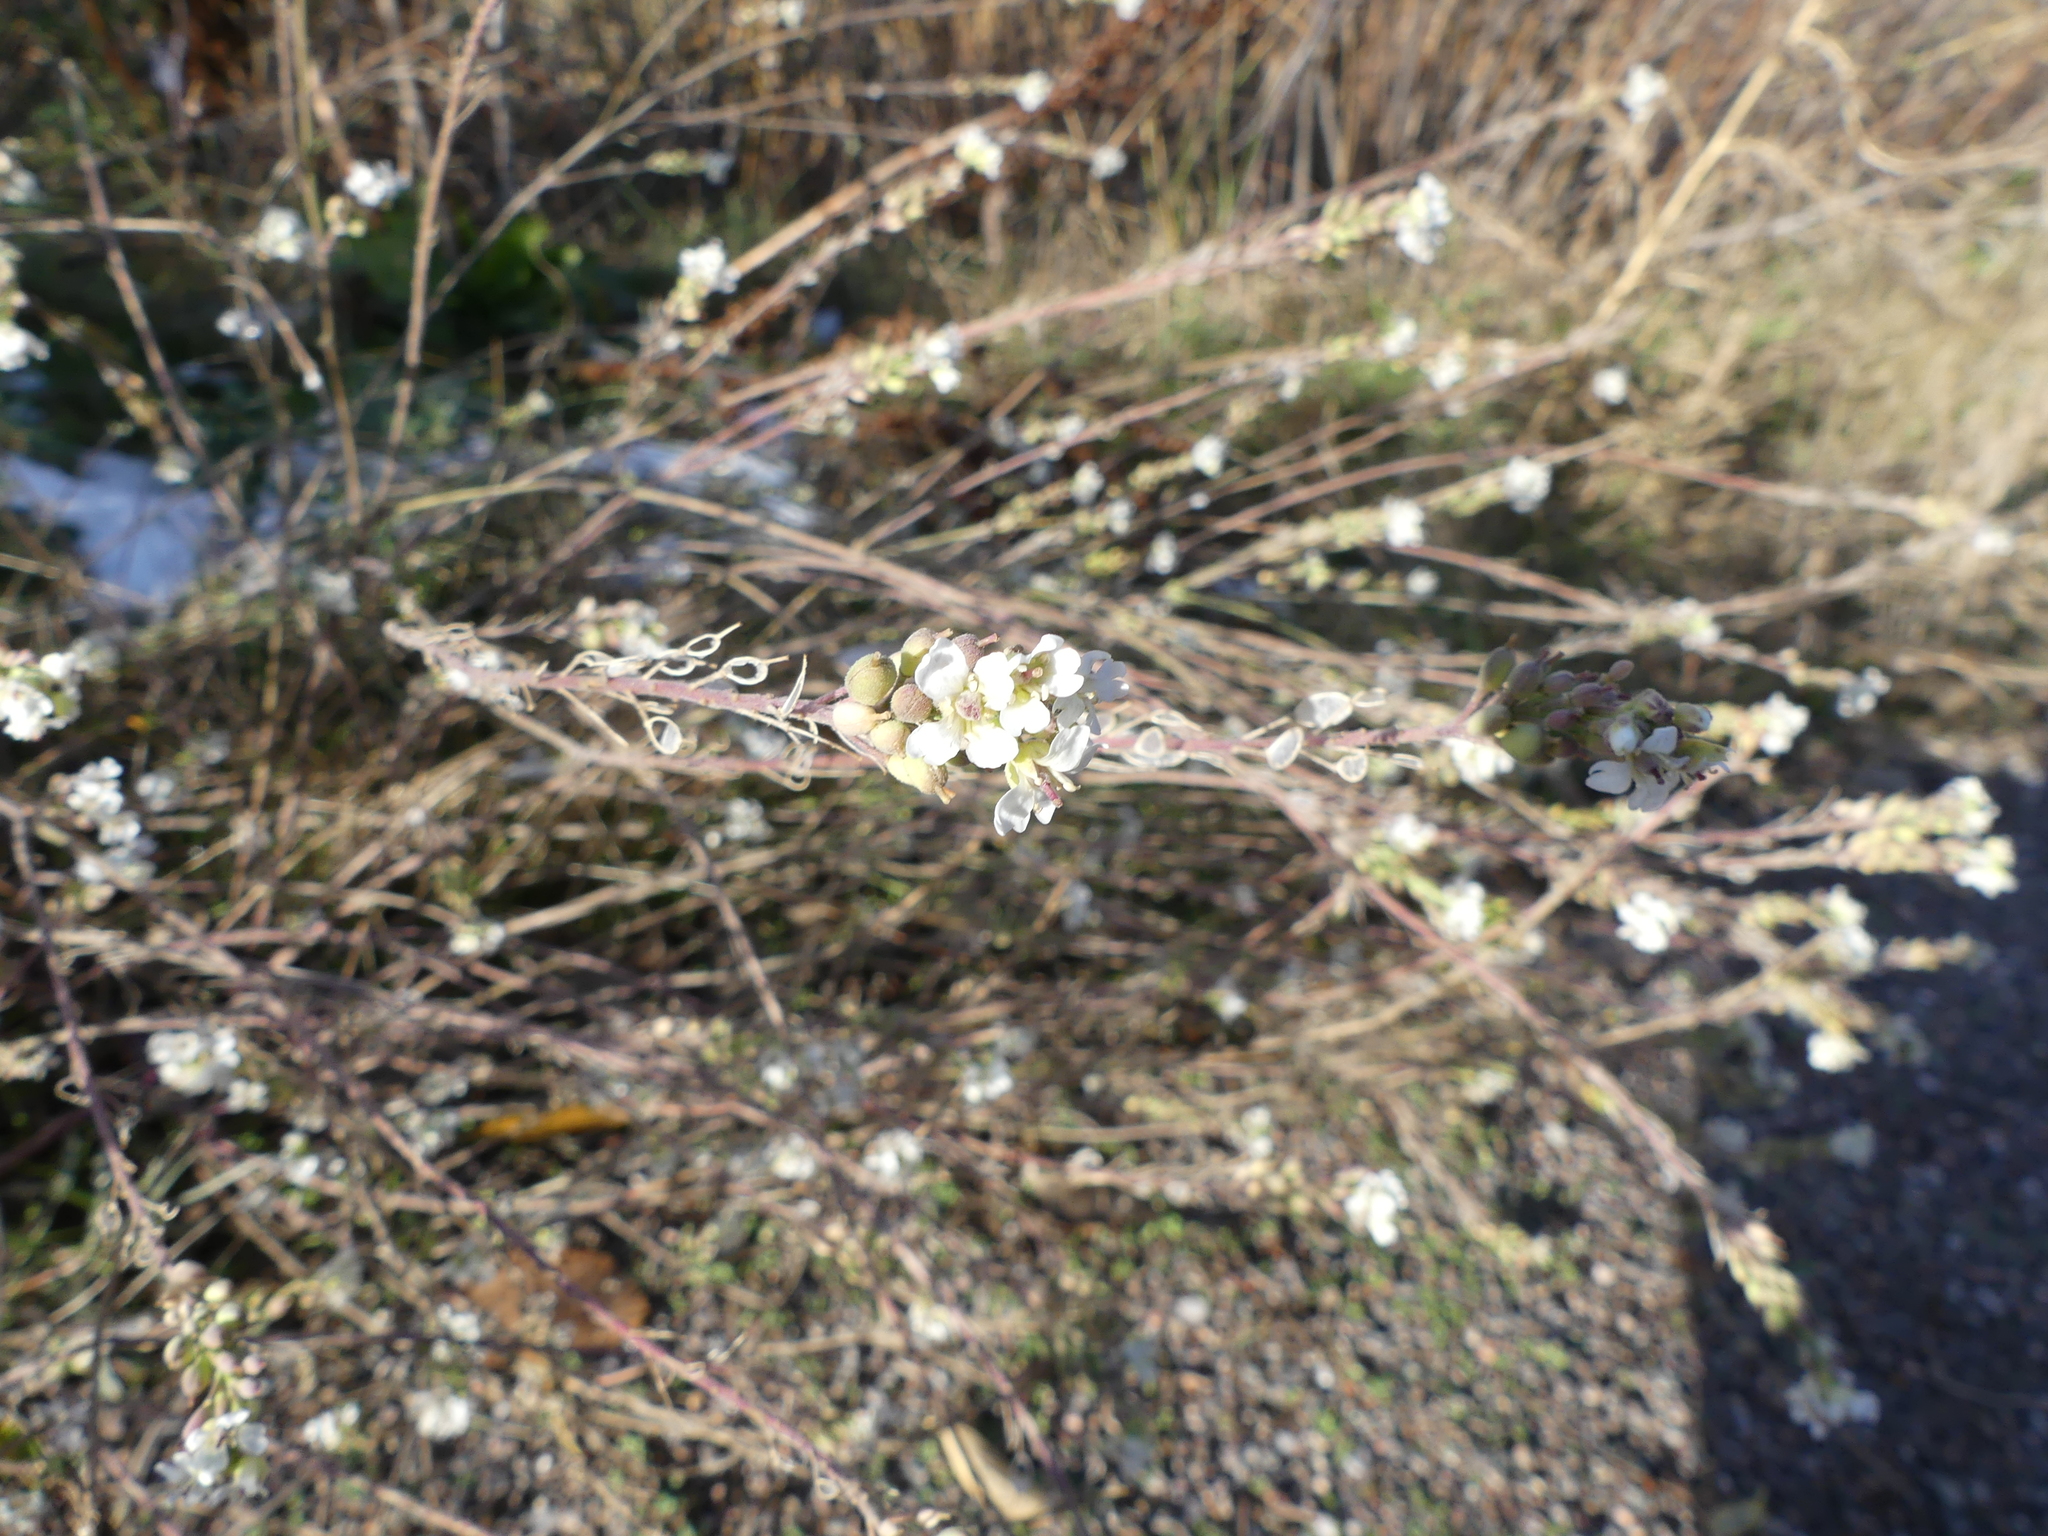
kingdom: Plantae
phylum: Tracheophyta
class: Magnoliopsida
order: Brassicales
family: Brassicaceae
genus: Berteroa
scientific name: Berteroa incana
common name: Hoary alison
